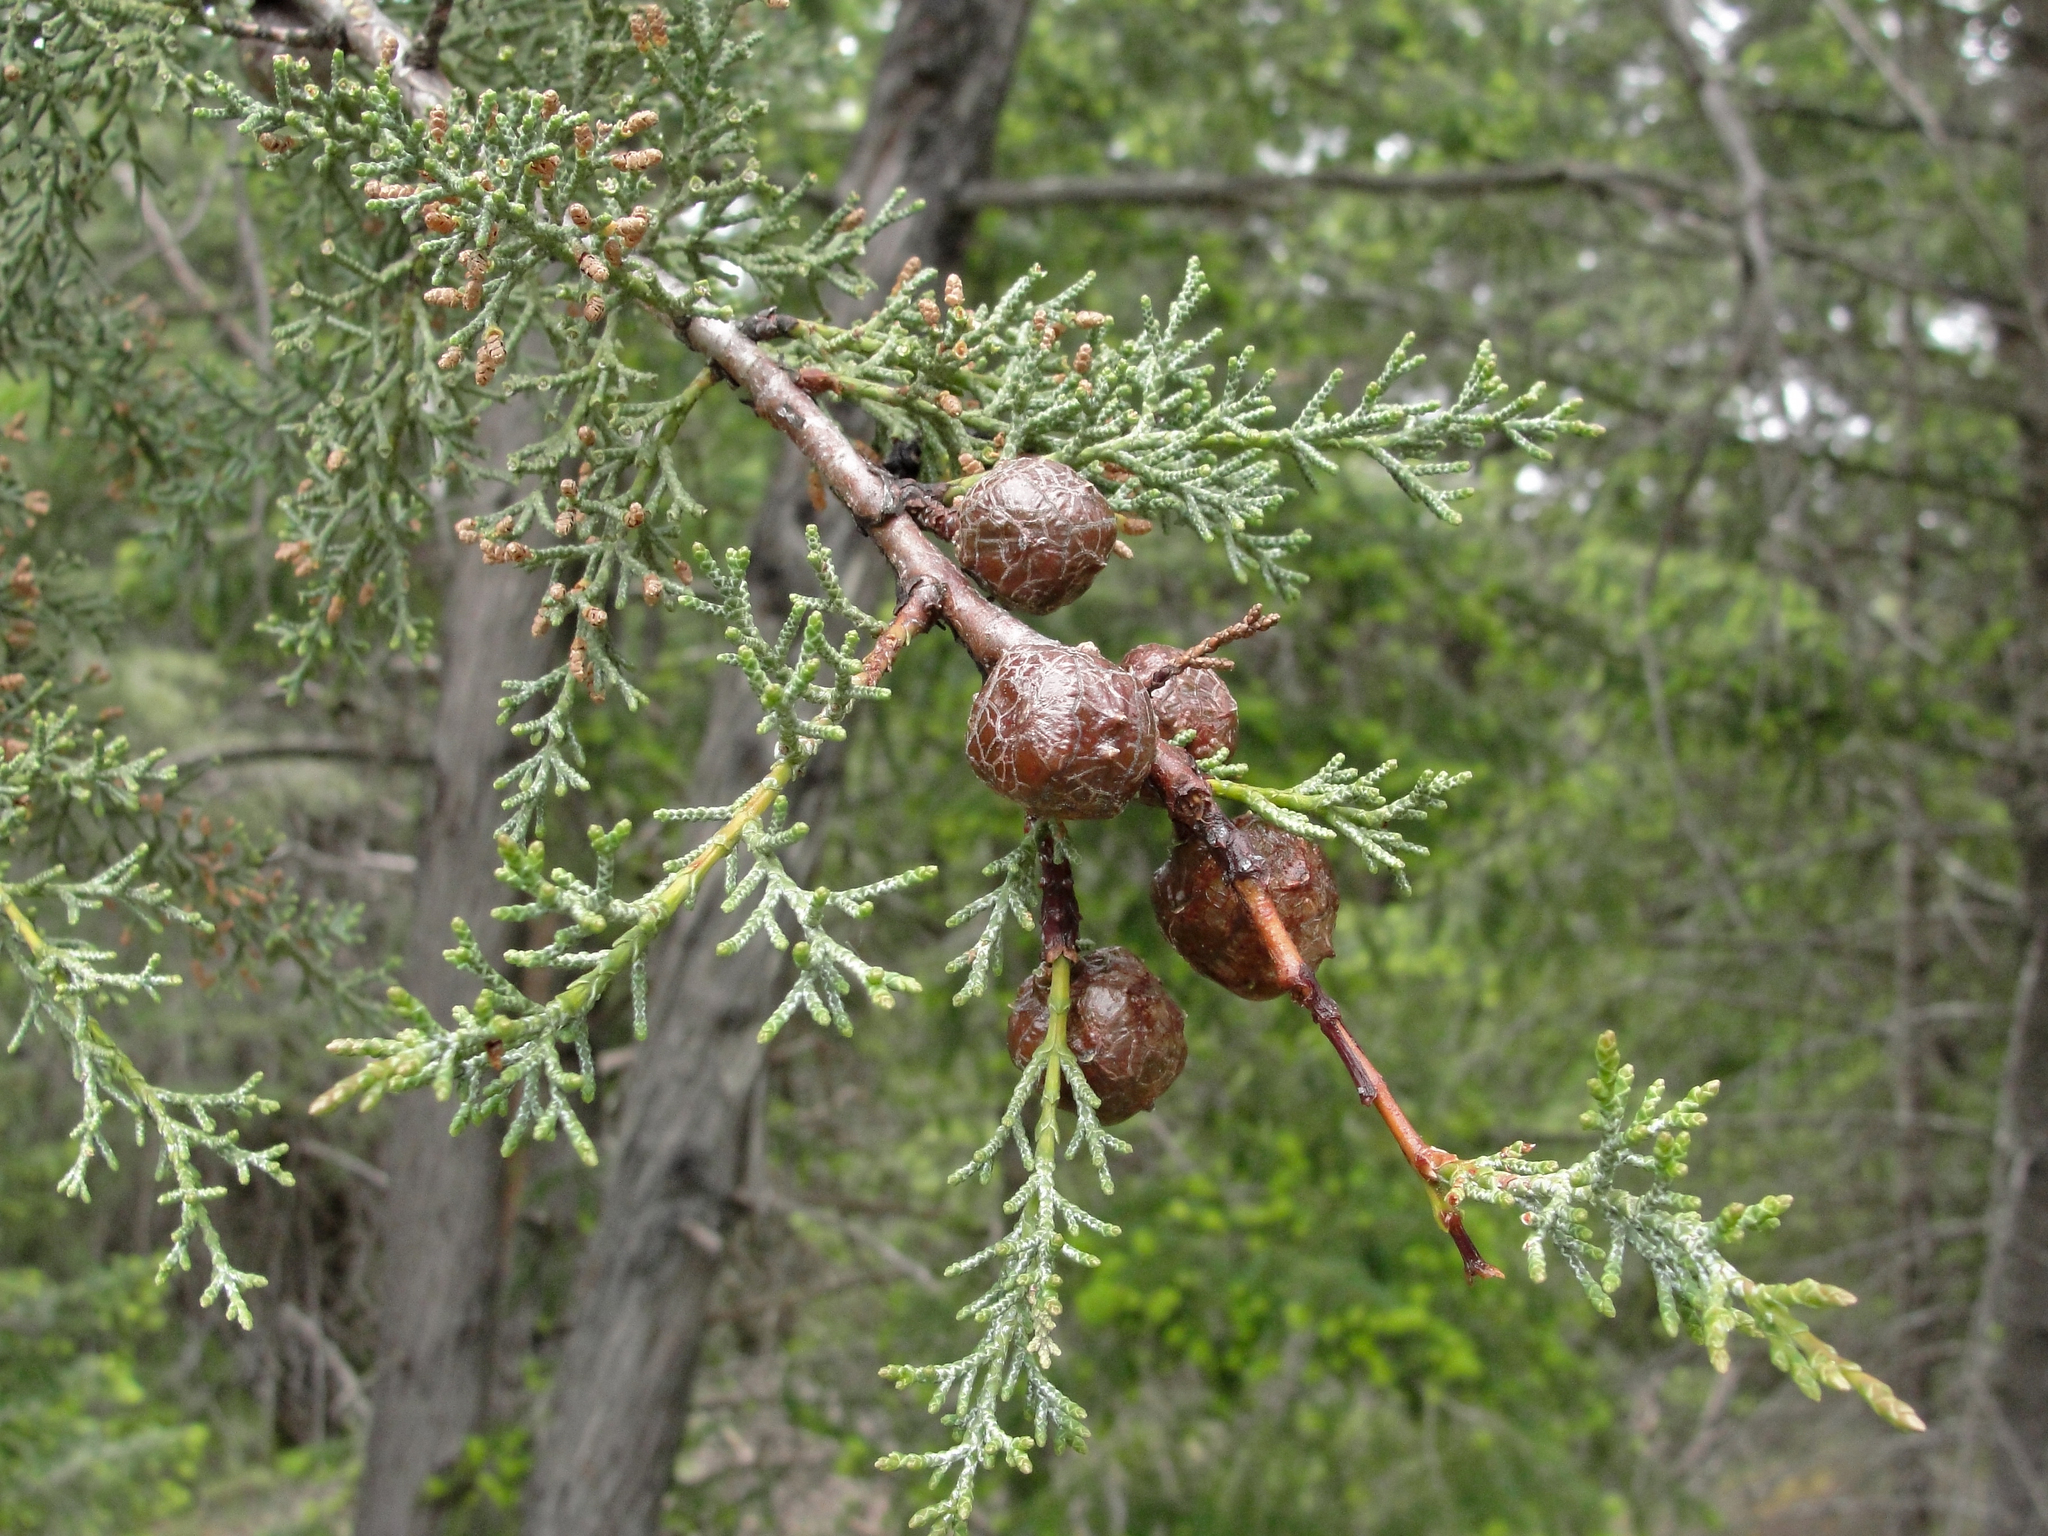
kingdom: Plantae
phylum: Tracheophyta
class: Pinopsida
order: Pinales
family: Cupressaceae
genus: Cupressus
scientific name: Cupressus sargentii
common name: Sargent cypress
